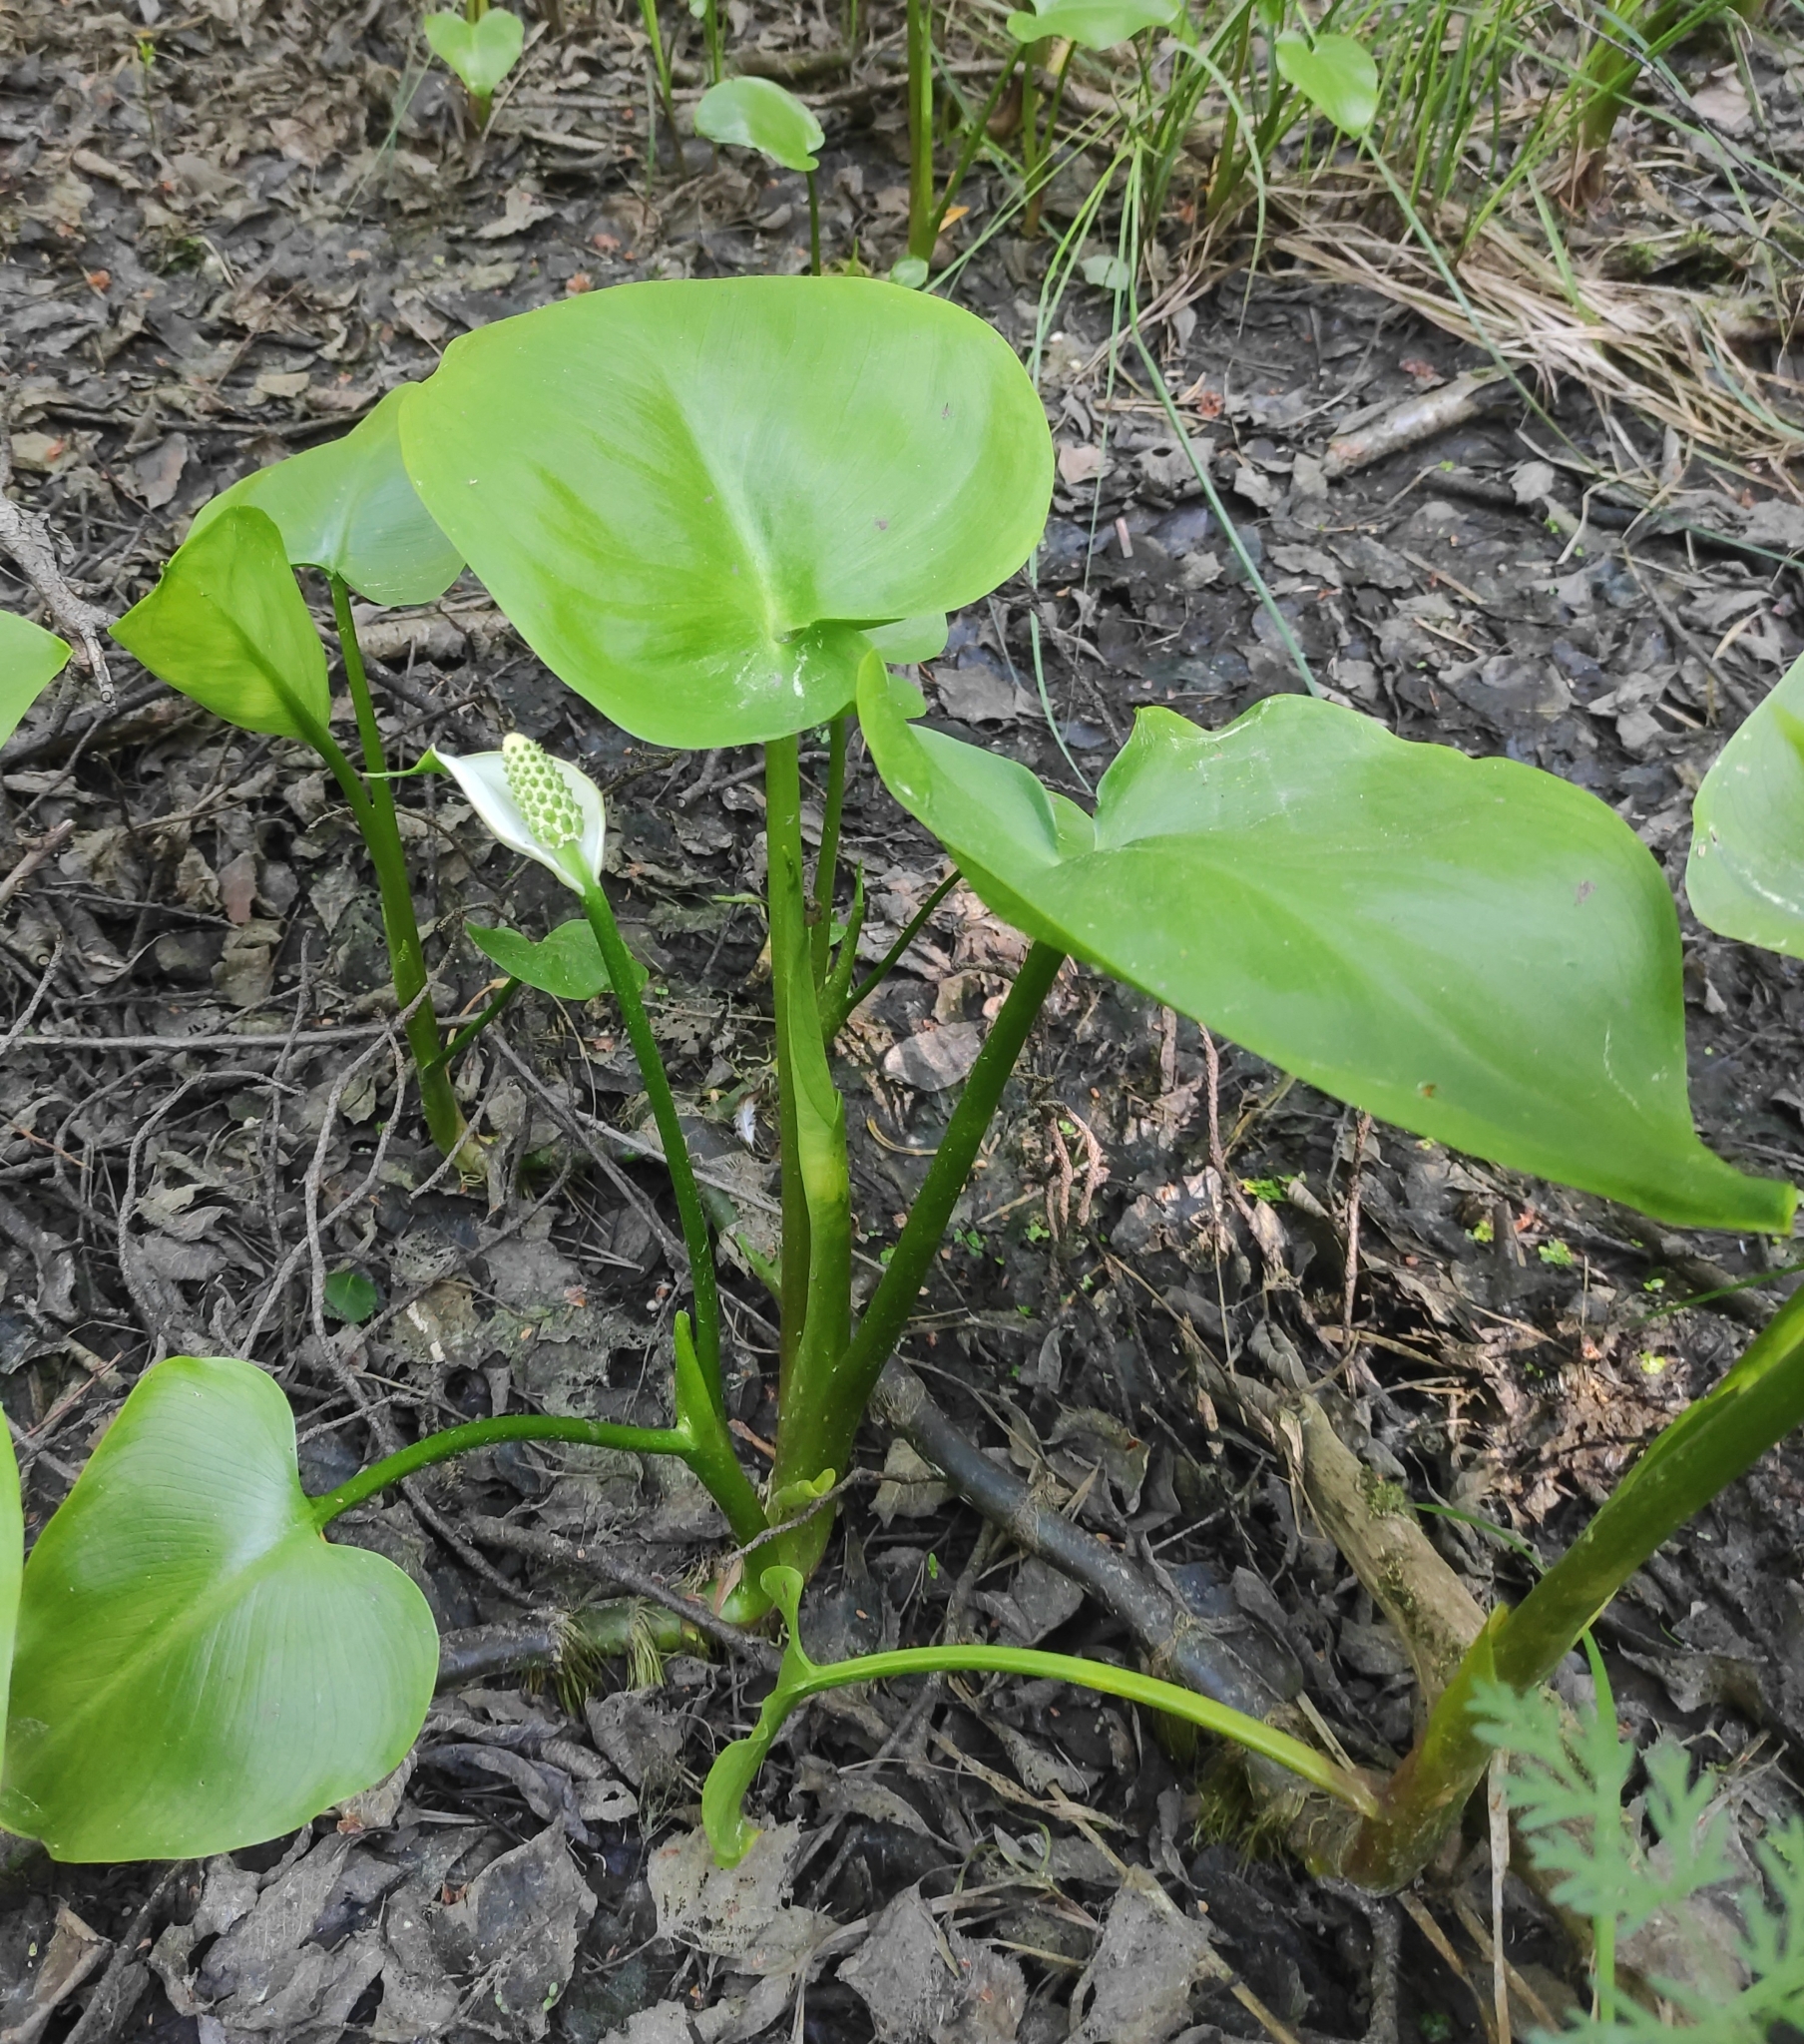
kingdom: Plantae
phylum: Tracheophyta
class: Liliopsida
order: Alismatales
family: Araceae
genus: Calla
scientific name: Calla palustris
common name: Bog arum
